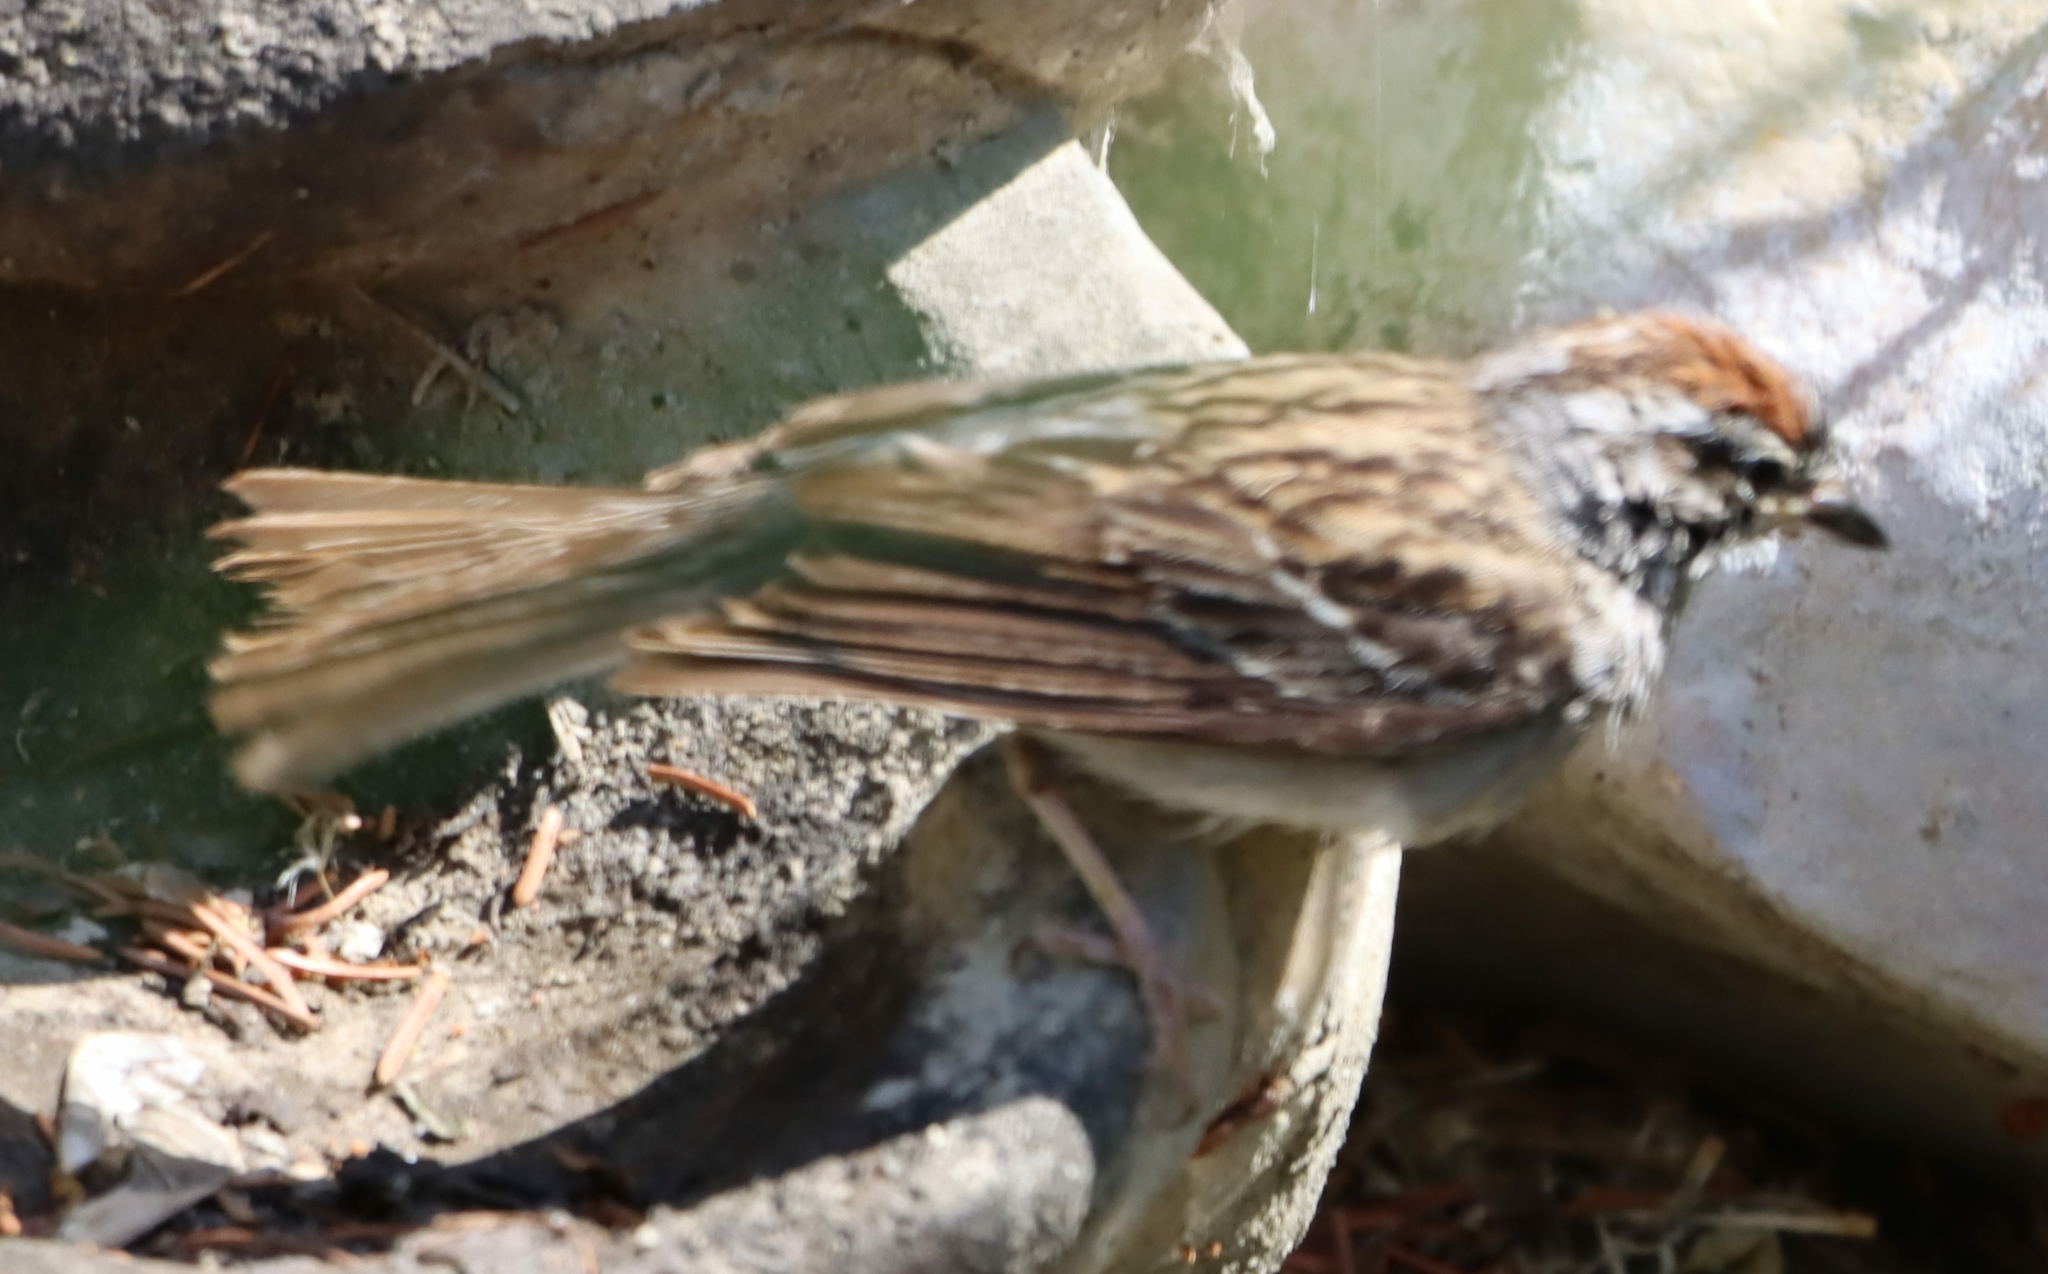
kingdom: Animalia
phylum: Chordata
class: Aves
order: Passeriformes
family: Passerellidae
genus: Spizella
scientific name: Spizella passerina
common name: Chipping sparrow
